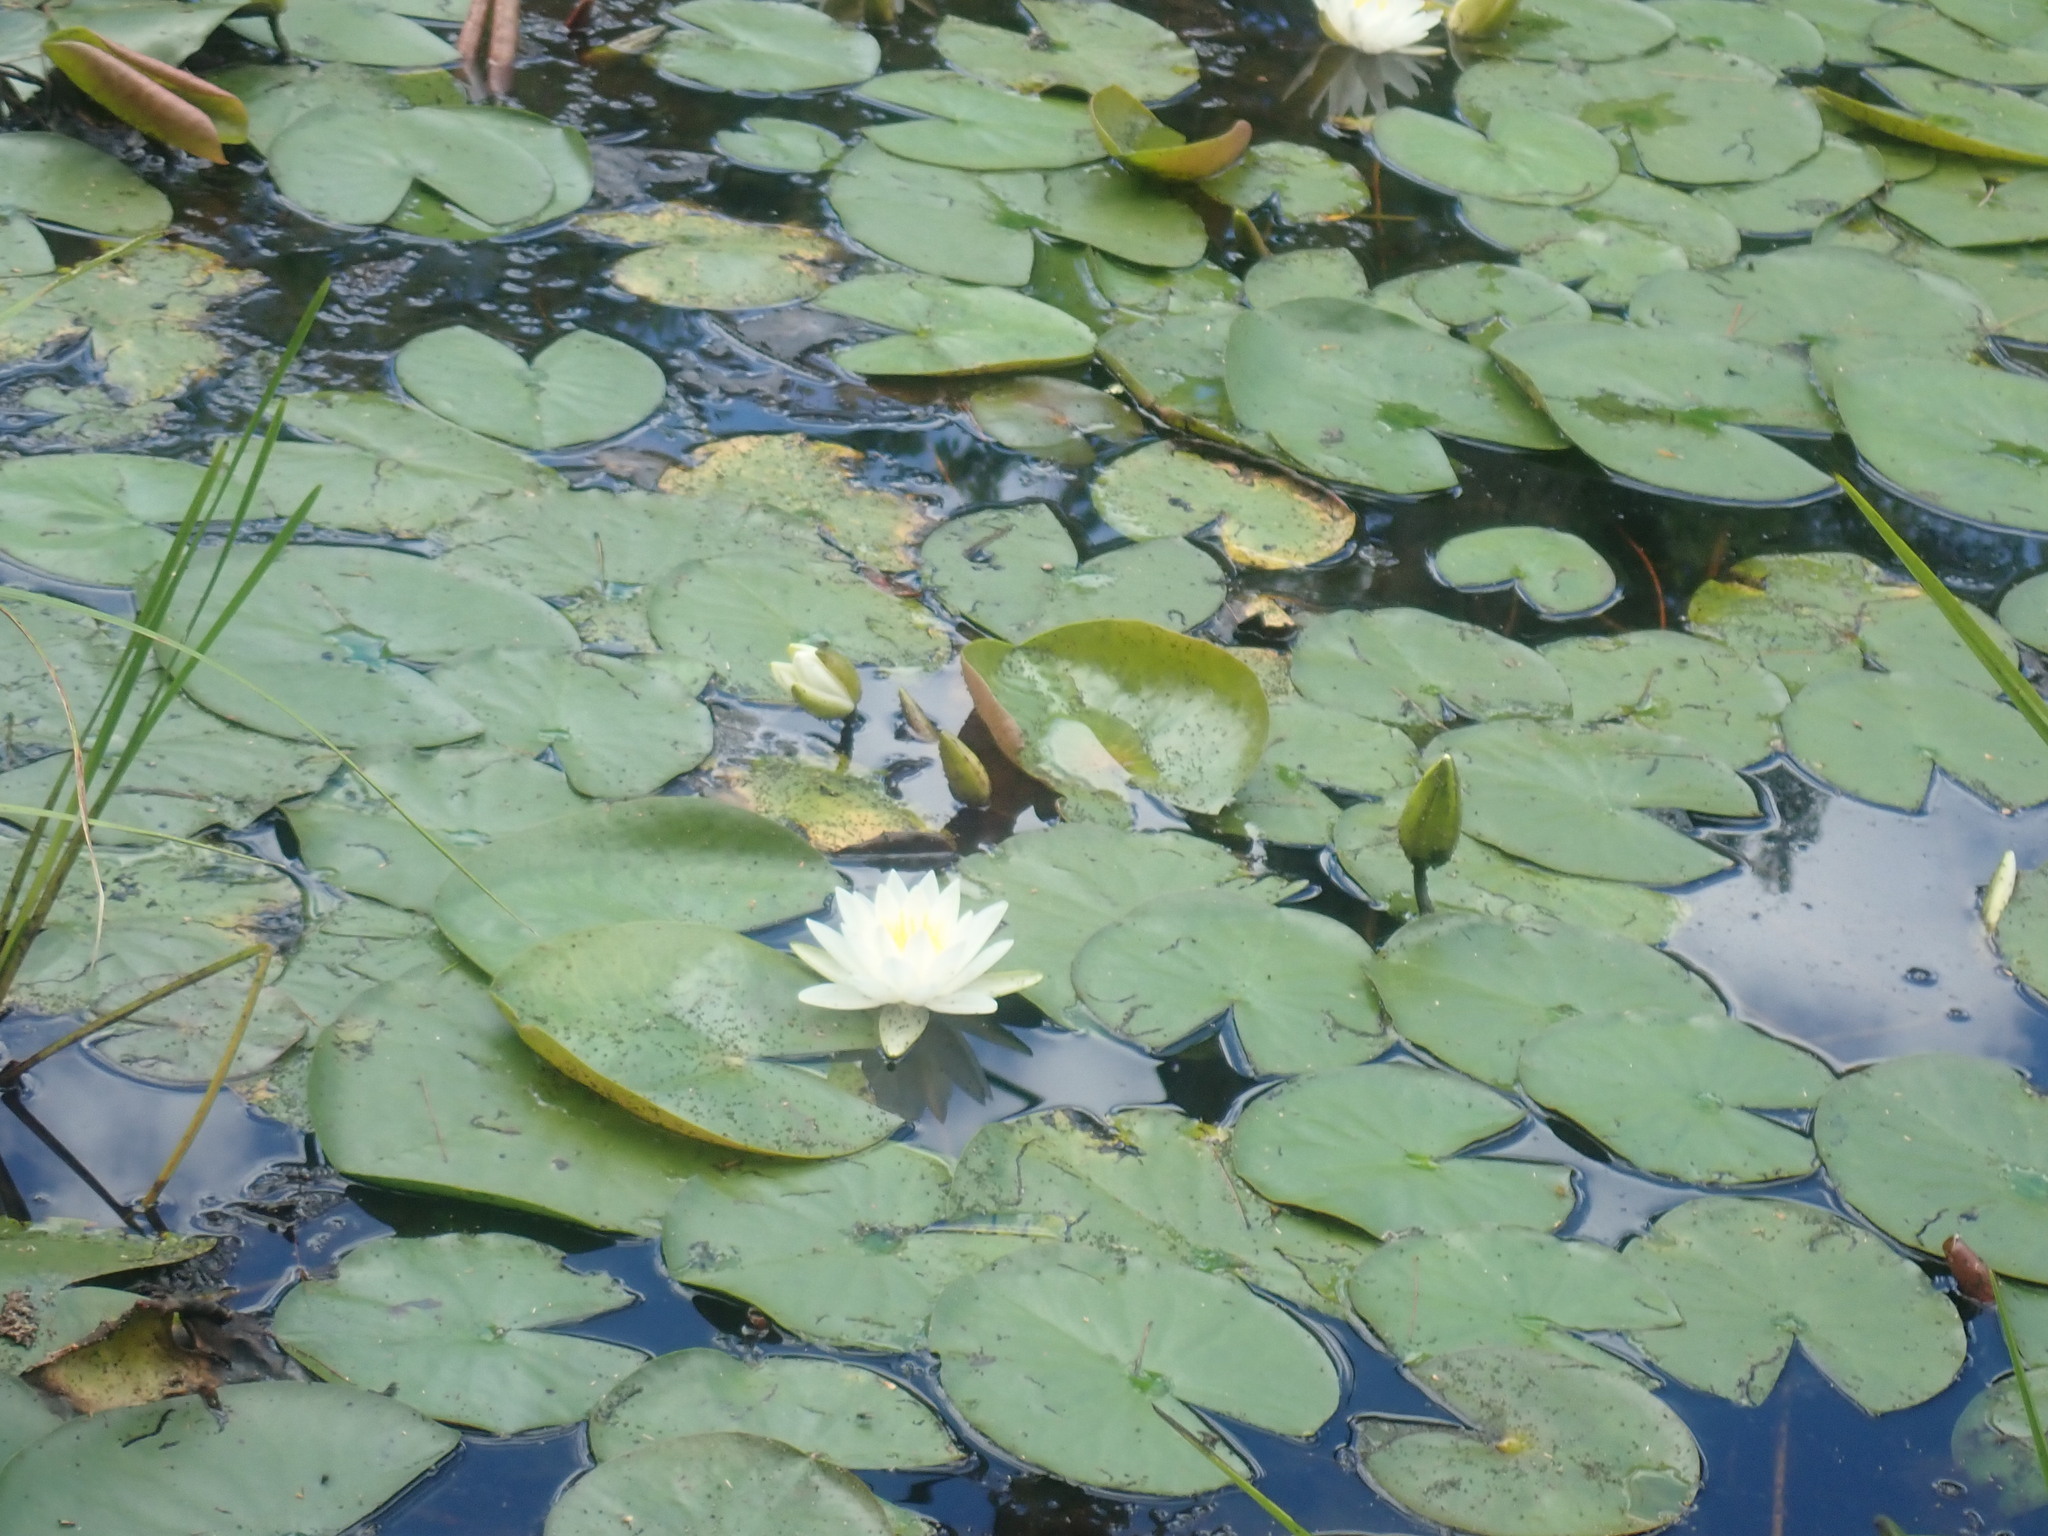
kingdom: Plantae
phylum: Tracheophyta
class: Magnoliopsida
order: Nymphaeales
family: Nymphaeaceae
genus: Nymphaea
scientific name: Nymphaea odorata
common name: Fragrant water-lily
